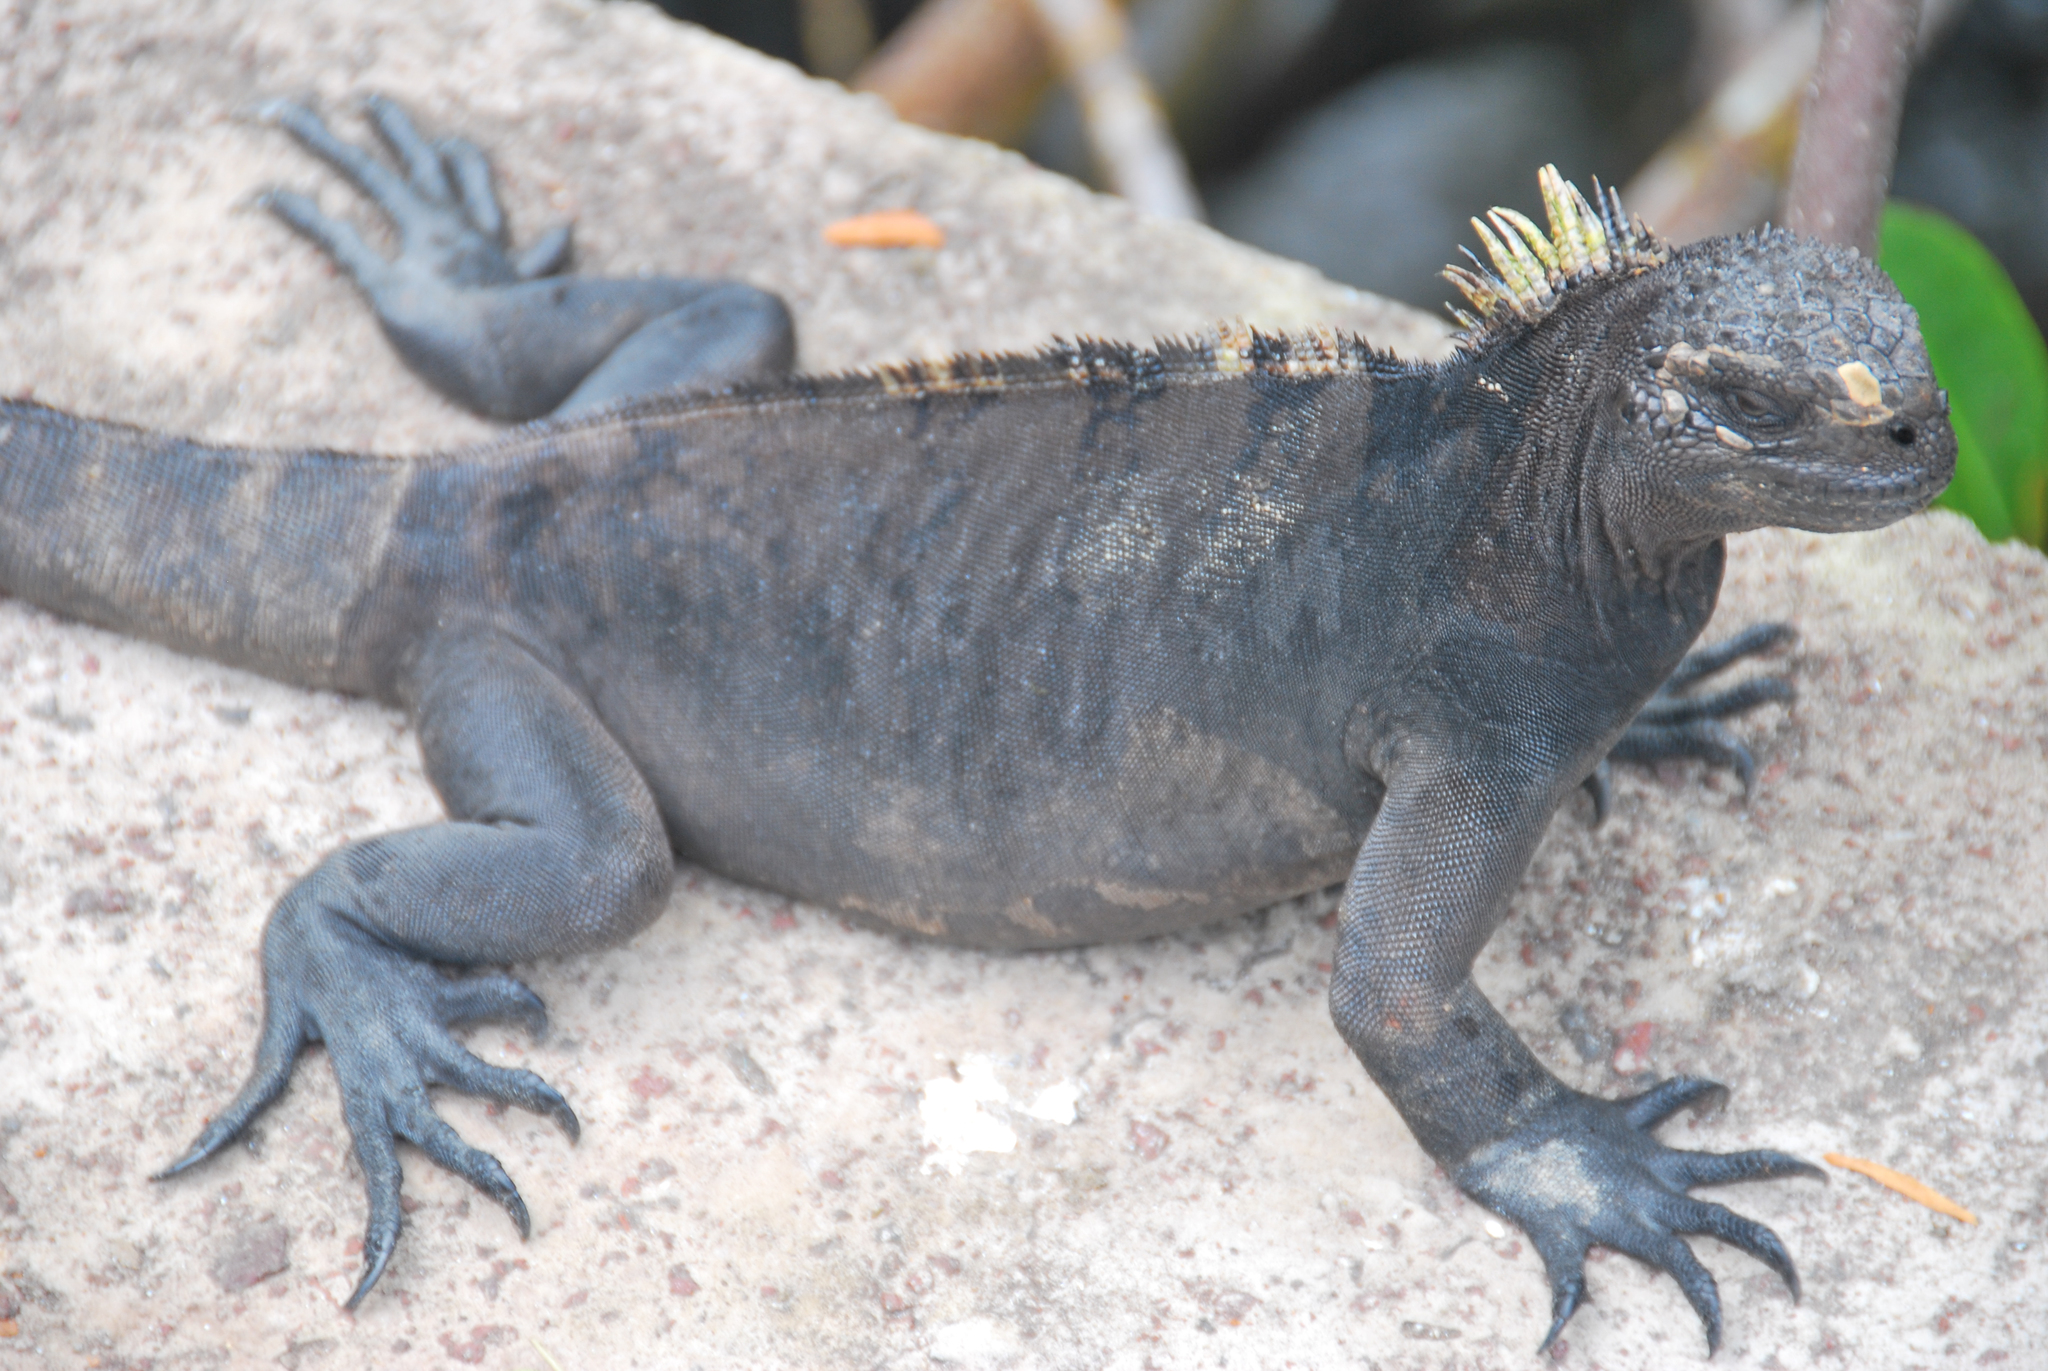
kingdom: Animalia
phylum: Chordata
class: Squamata
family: Iguanidae
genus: Amblyrhynchus
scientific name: Amblyrhynchus cristatus
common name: Marine iguana
